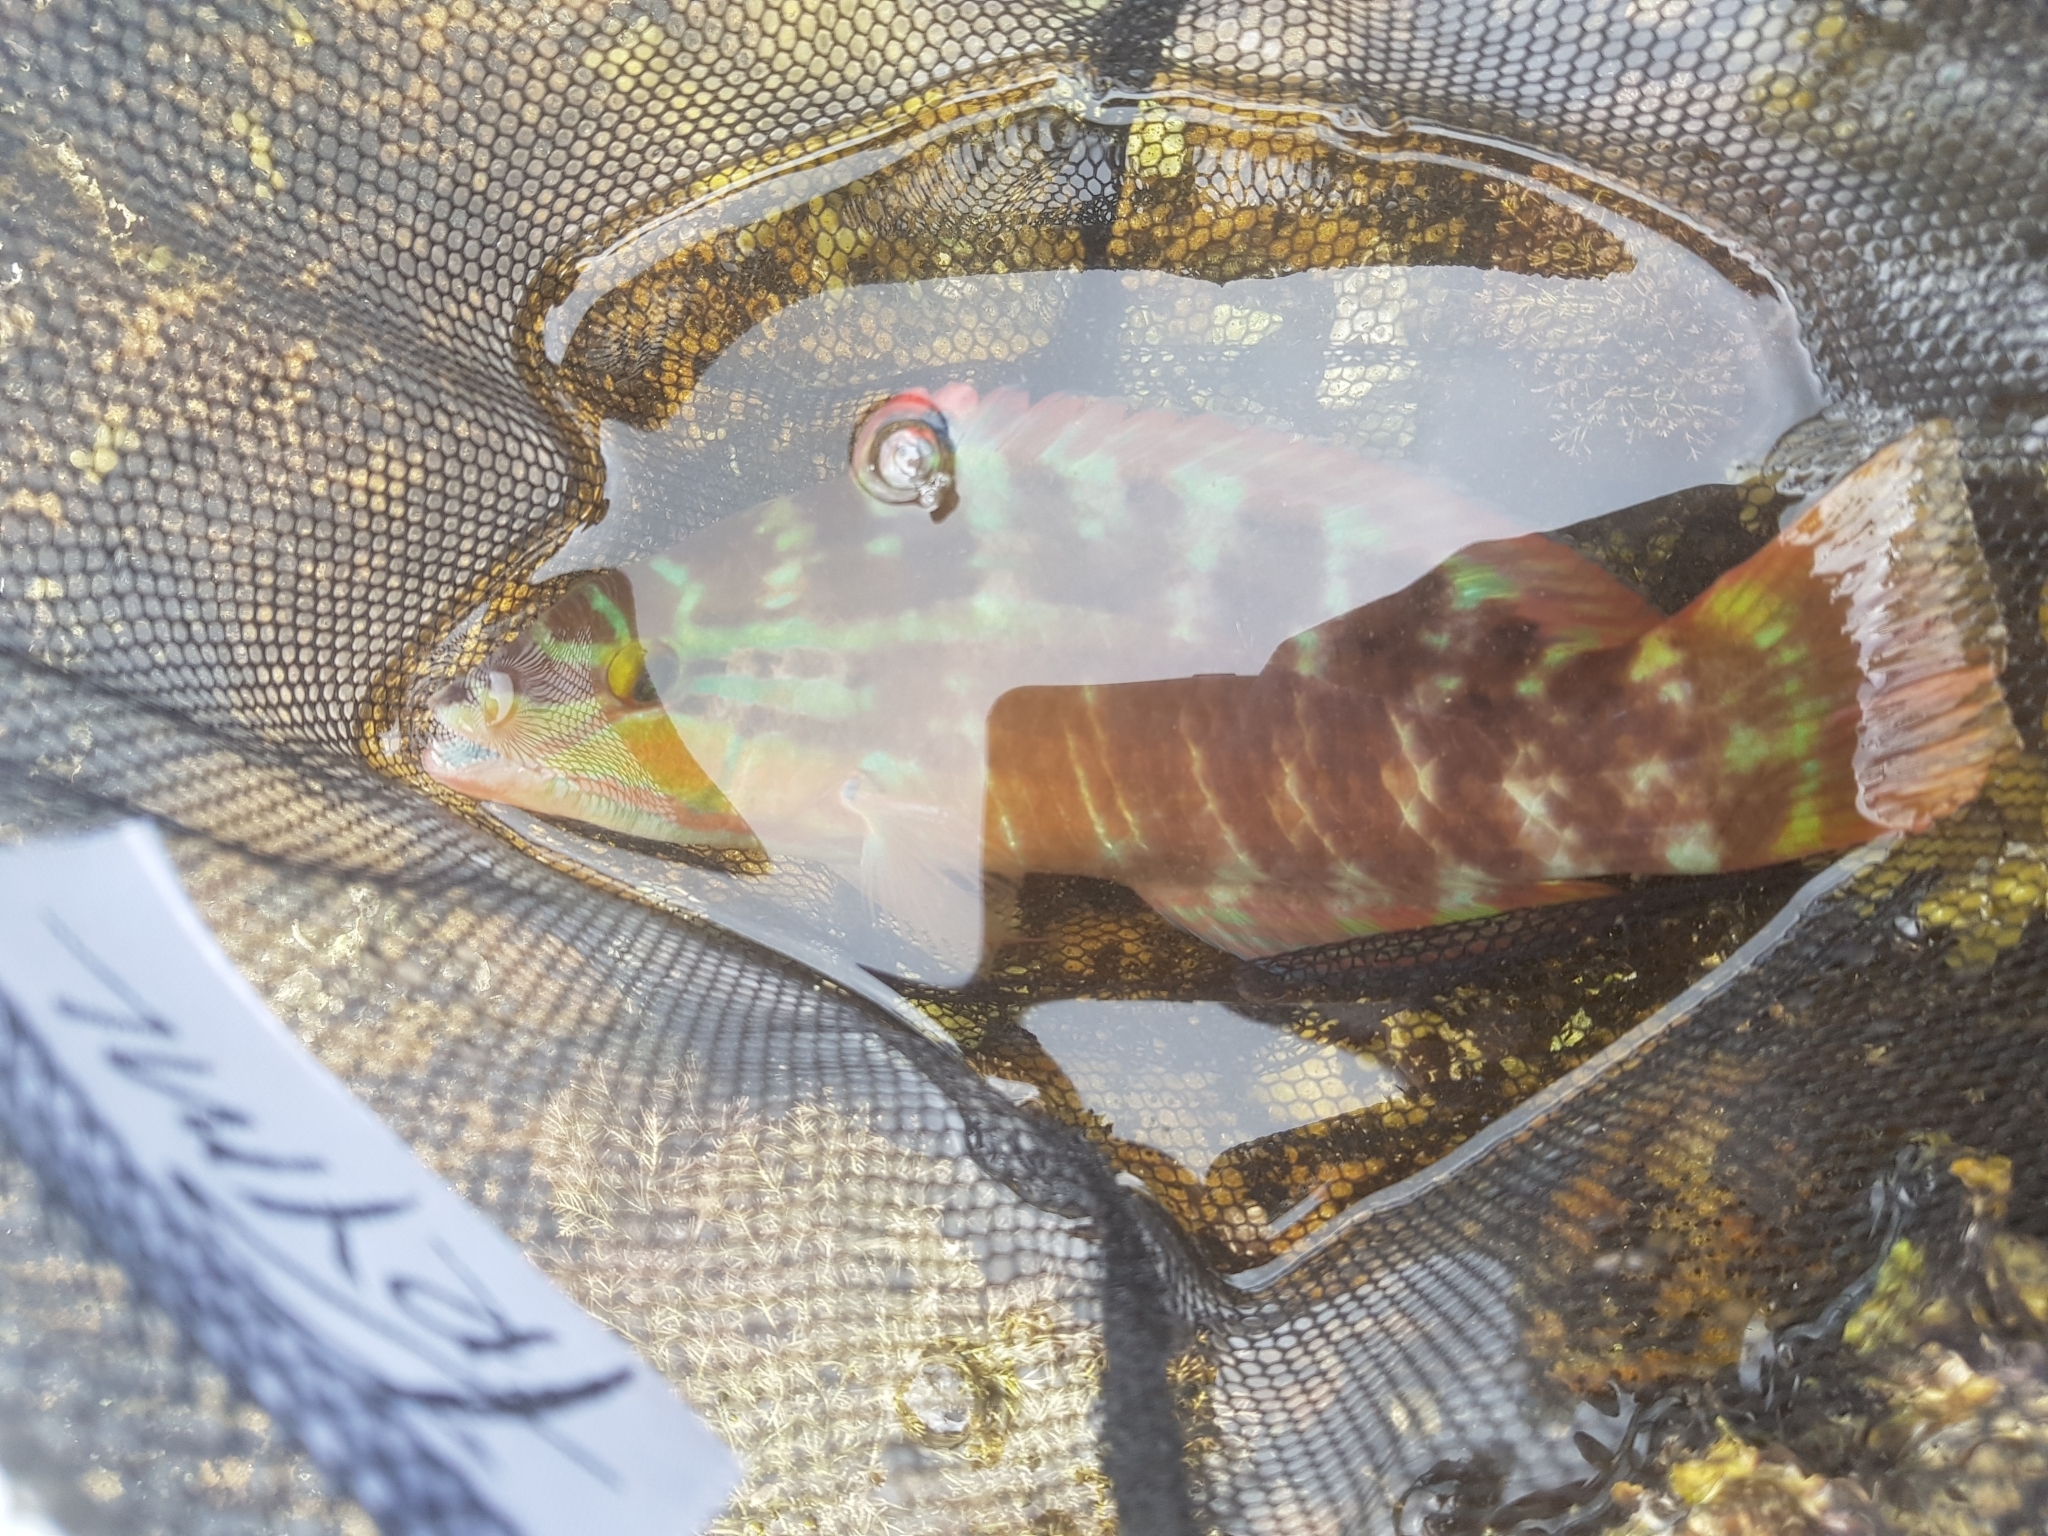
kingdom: Animalia
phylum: Chordata
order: Perciformes
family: Labridae
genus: Pseudolabrus
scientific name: Pseudolabrus guentheri
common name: Günther's wrasse
